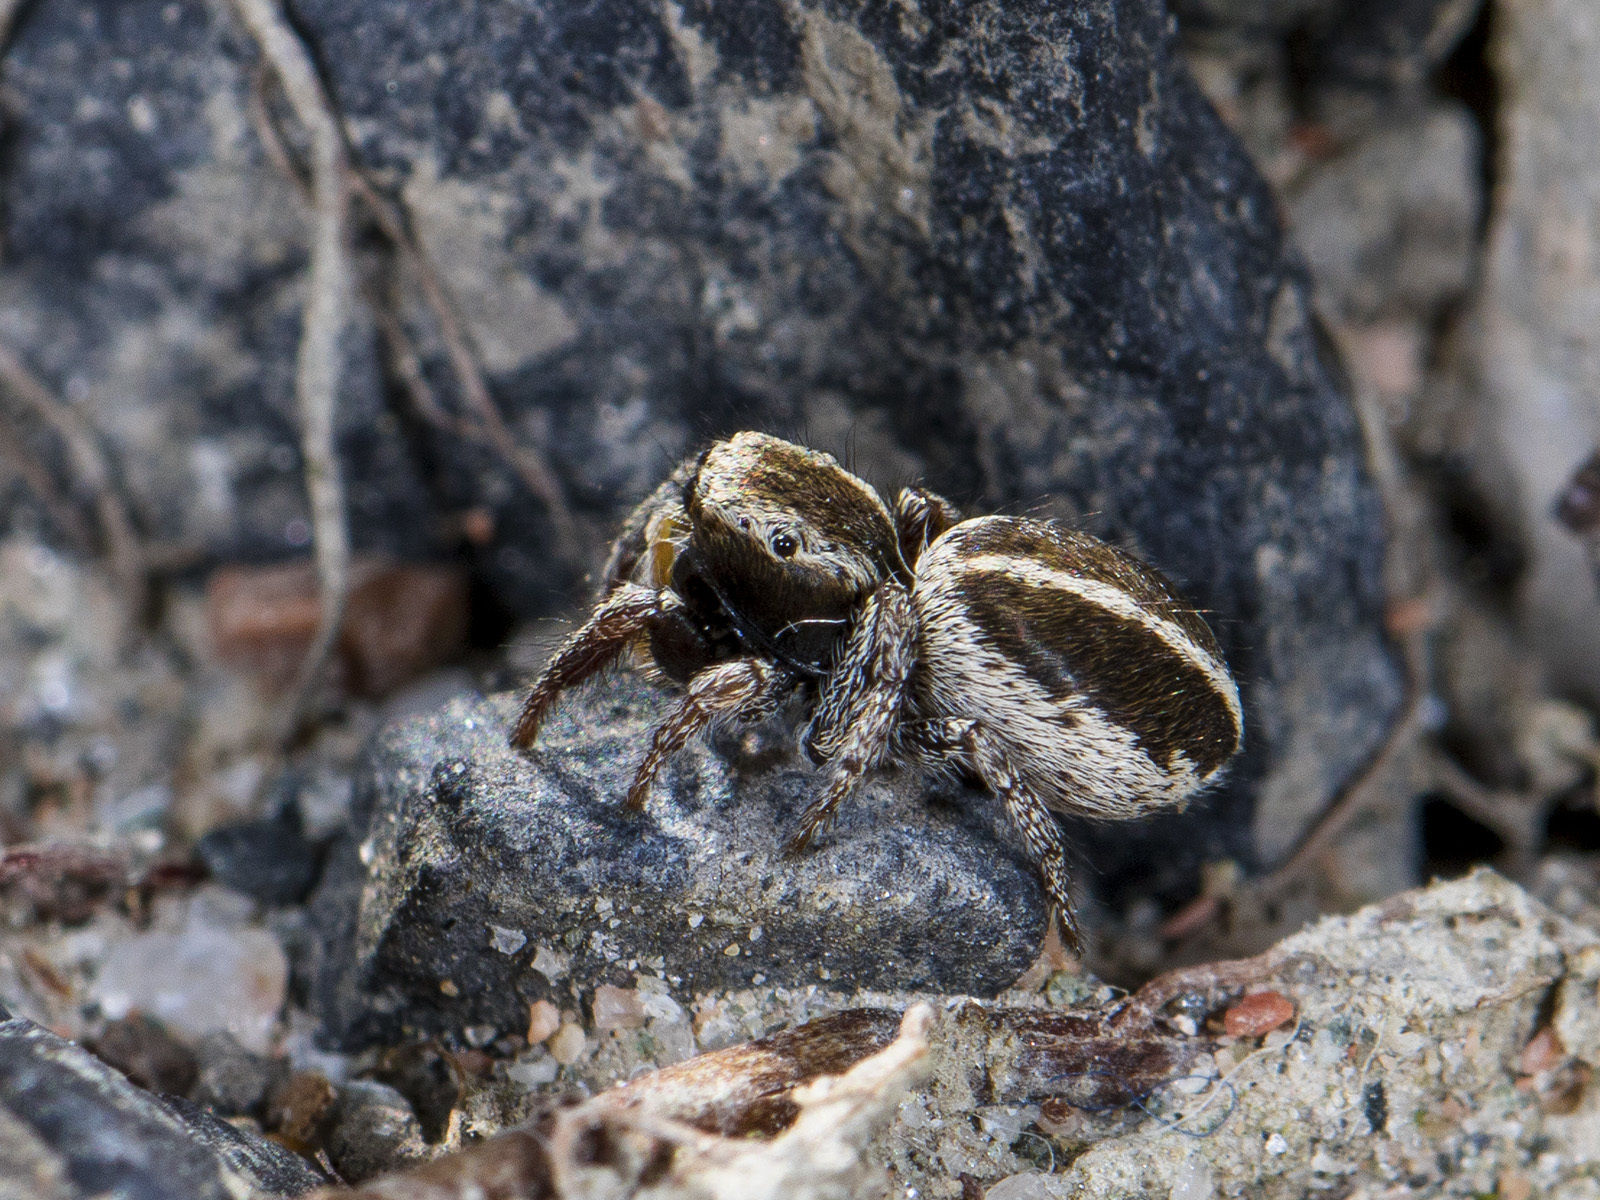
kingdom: Animalia
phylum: Arthropoda
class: Arachnida
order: Araneae
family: Salticidae
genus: Pellenes
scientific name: Pellenes epularis
